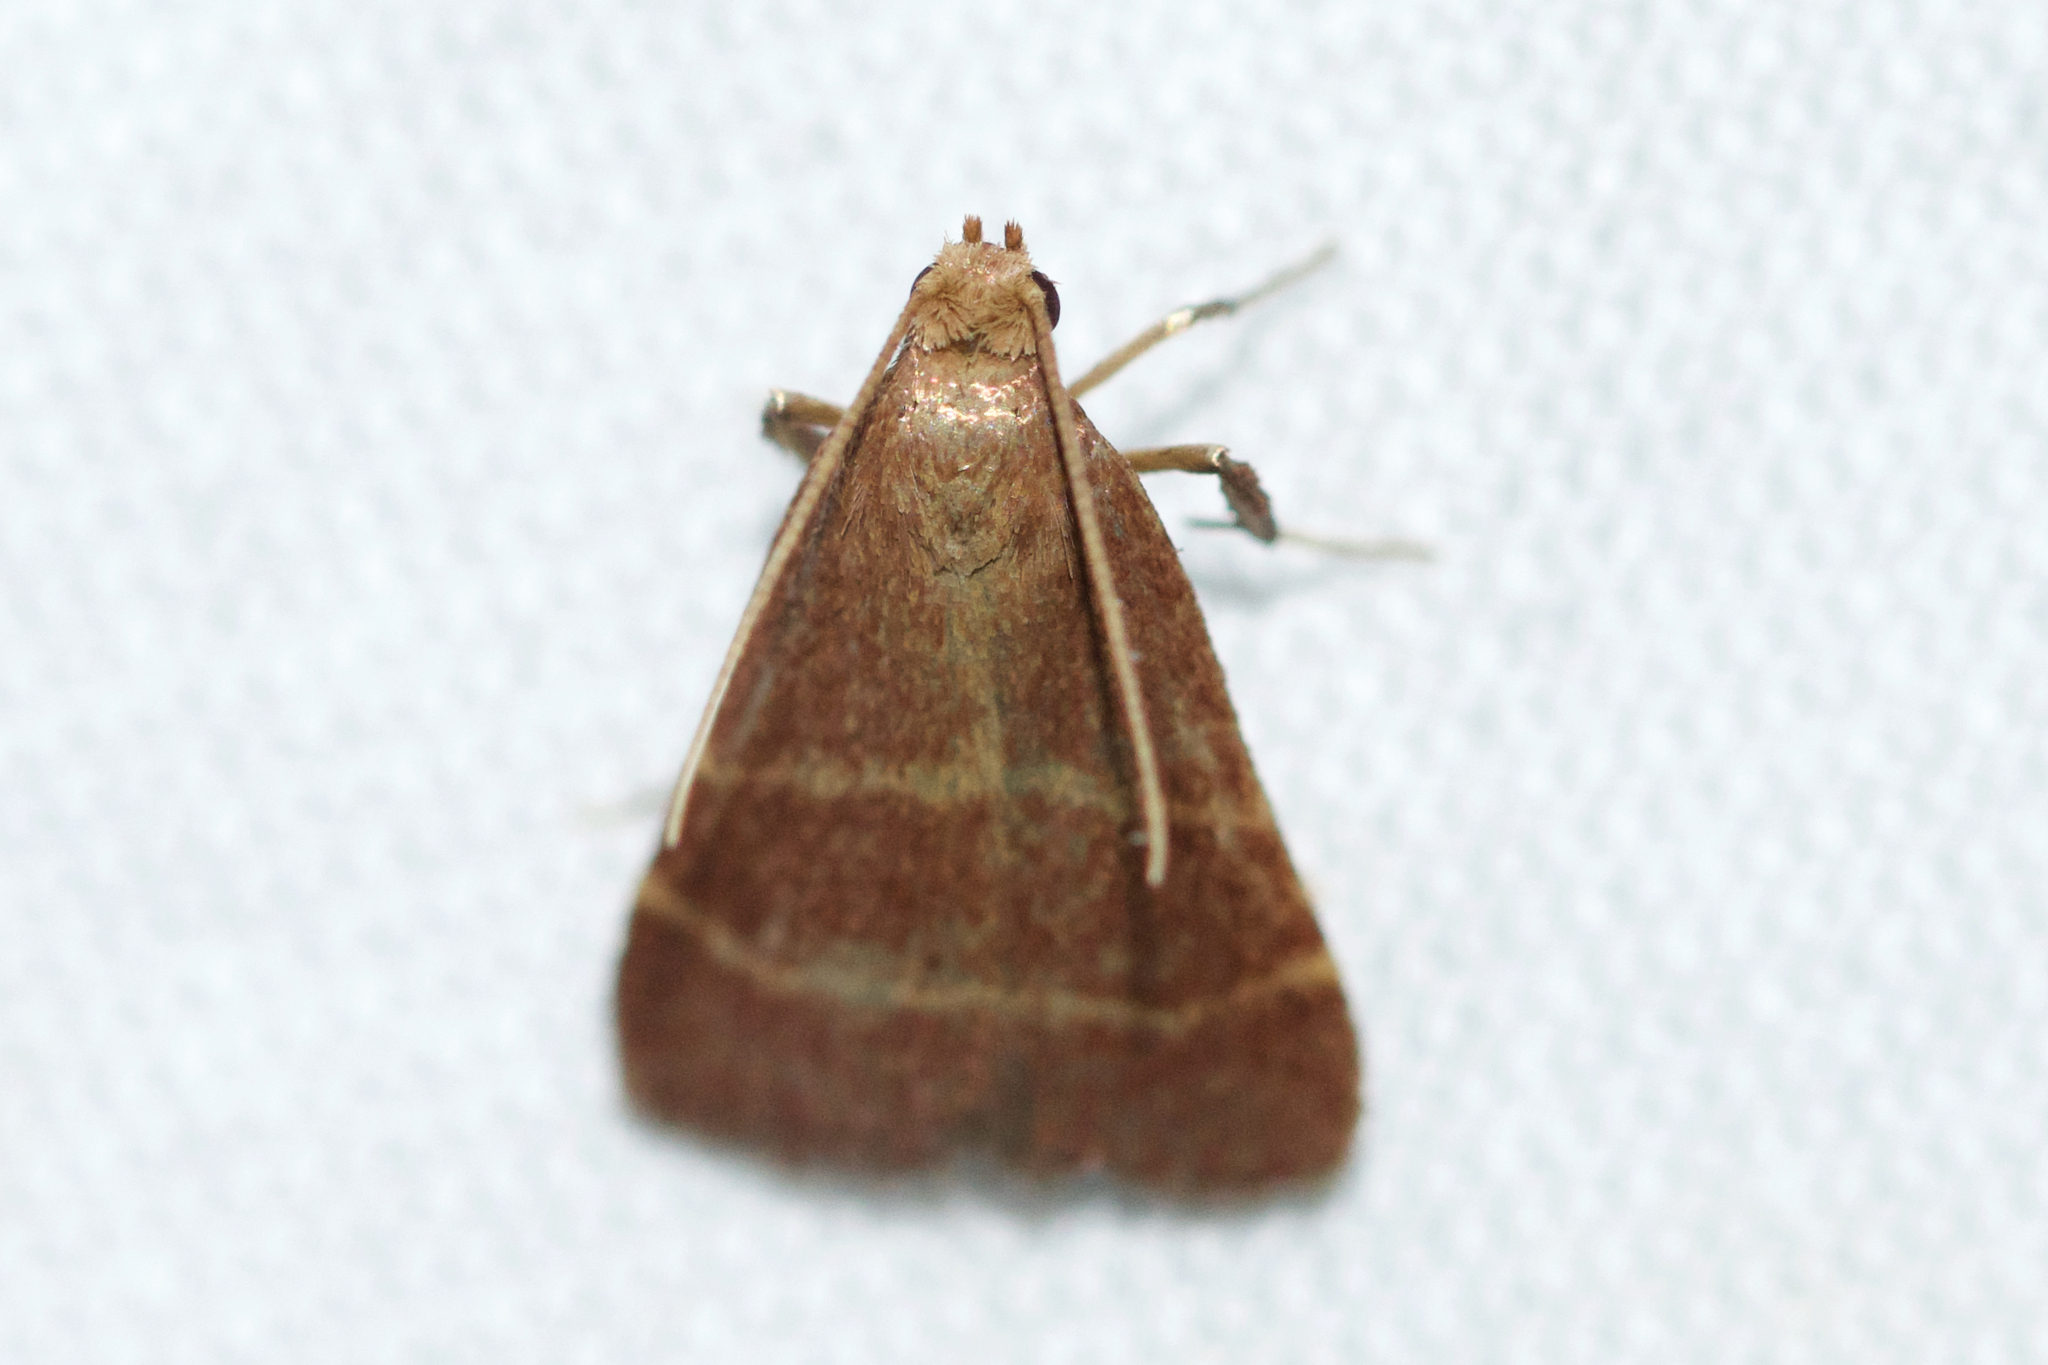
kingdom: Animalia
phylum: Arthropoda
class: Insecta
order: Lepidoptera
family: Pyralidae
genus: Arta
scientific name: Arta statalis
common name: Posturing arta moth
